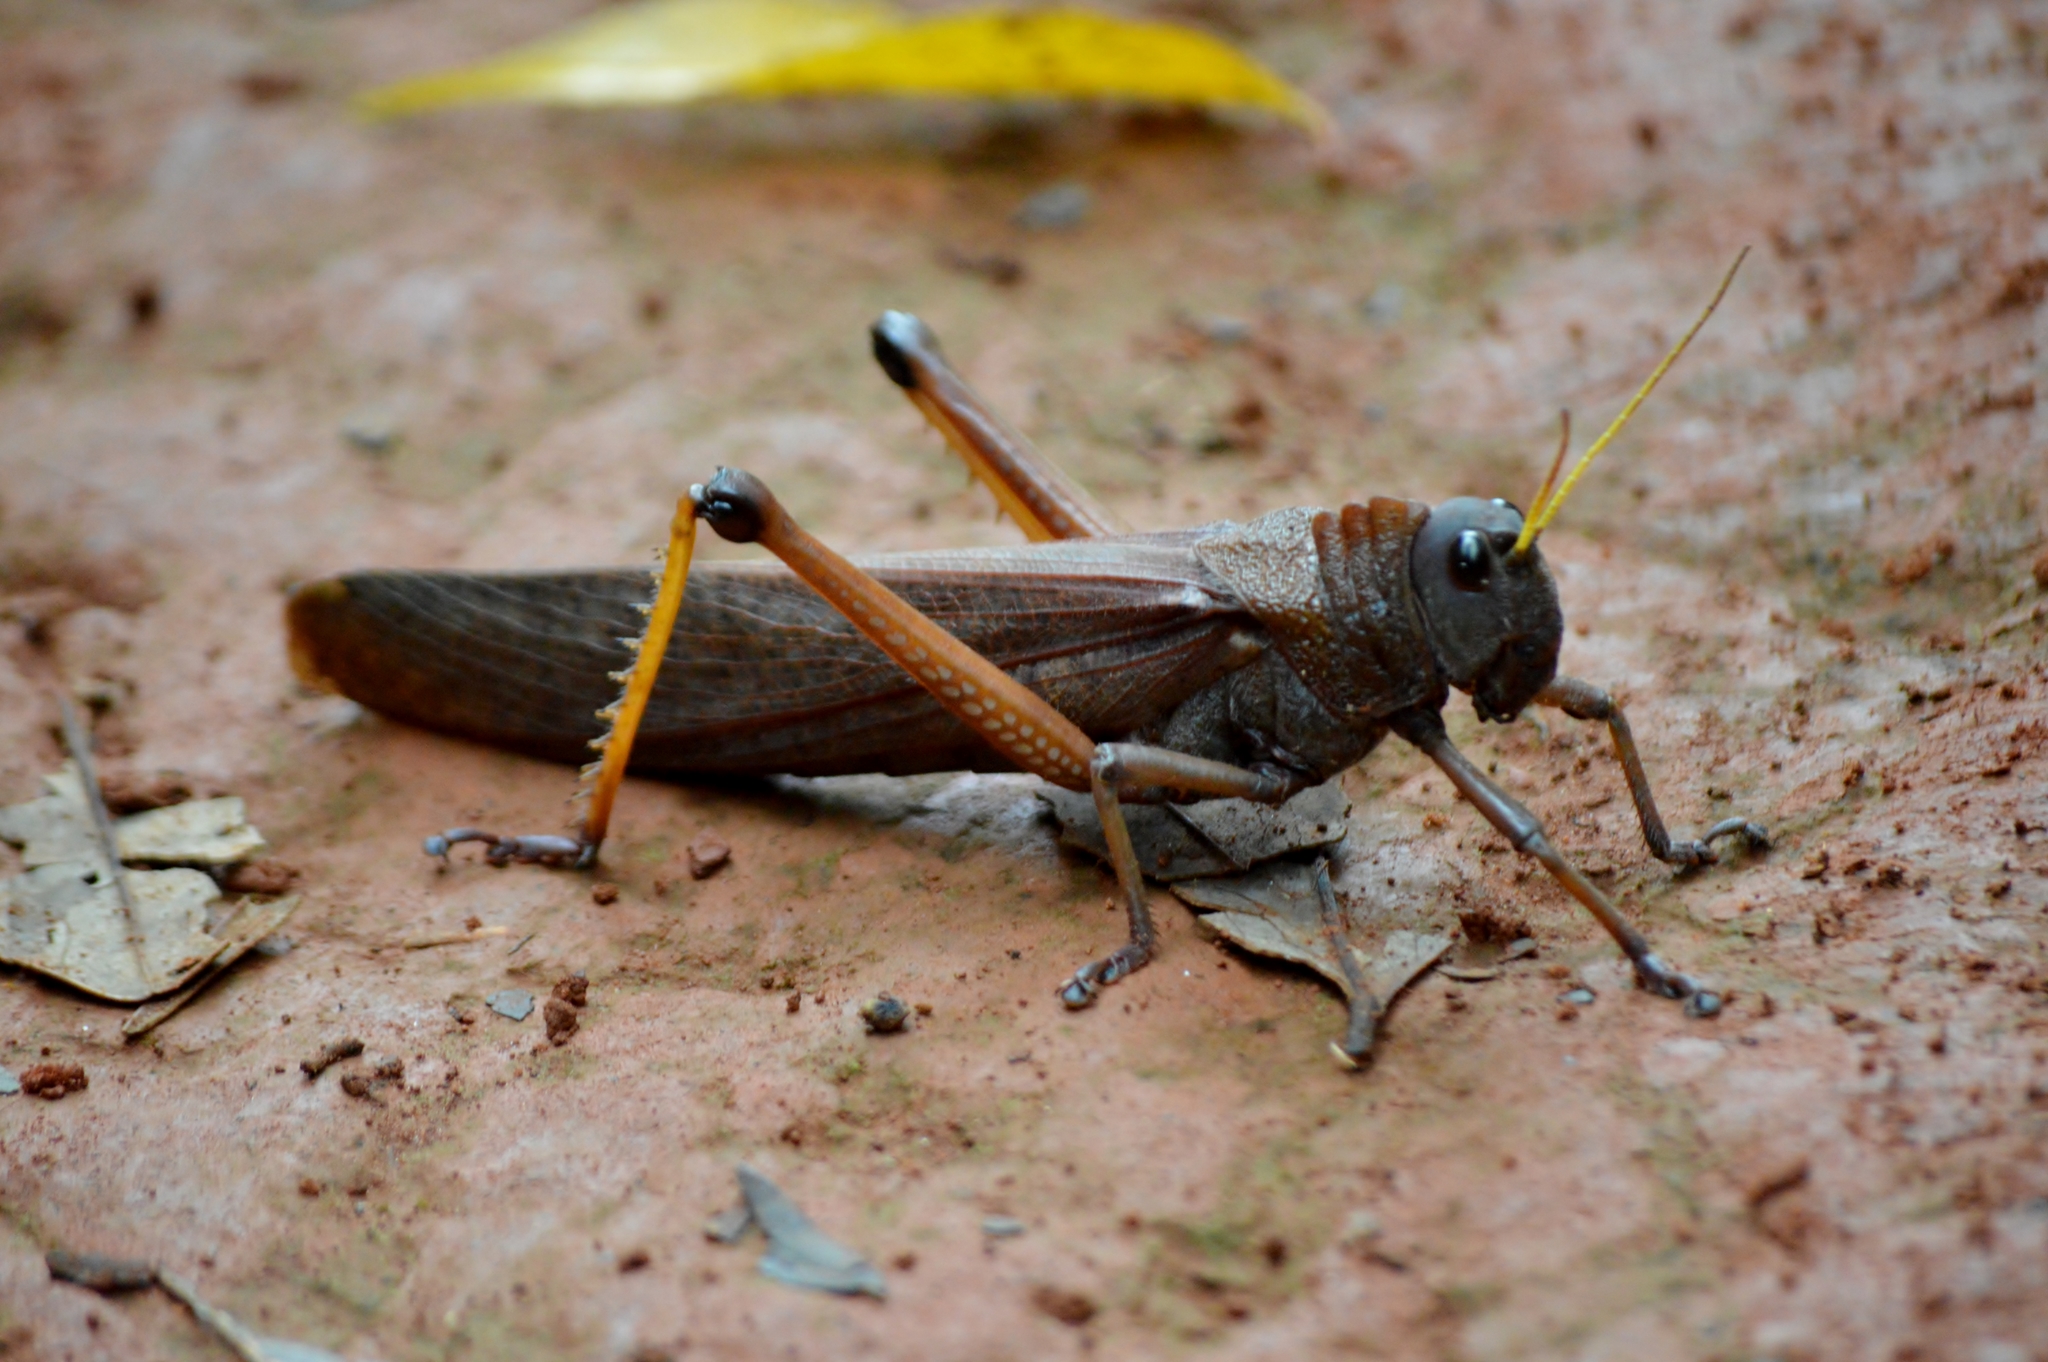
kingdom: Animalia
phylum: Arthropoda
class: Insecta
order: Orthoptera
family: Romaleidae
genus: Tropidacris
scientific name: Tropidacris collaris
